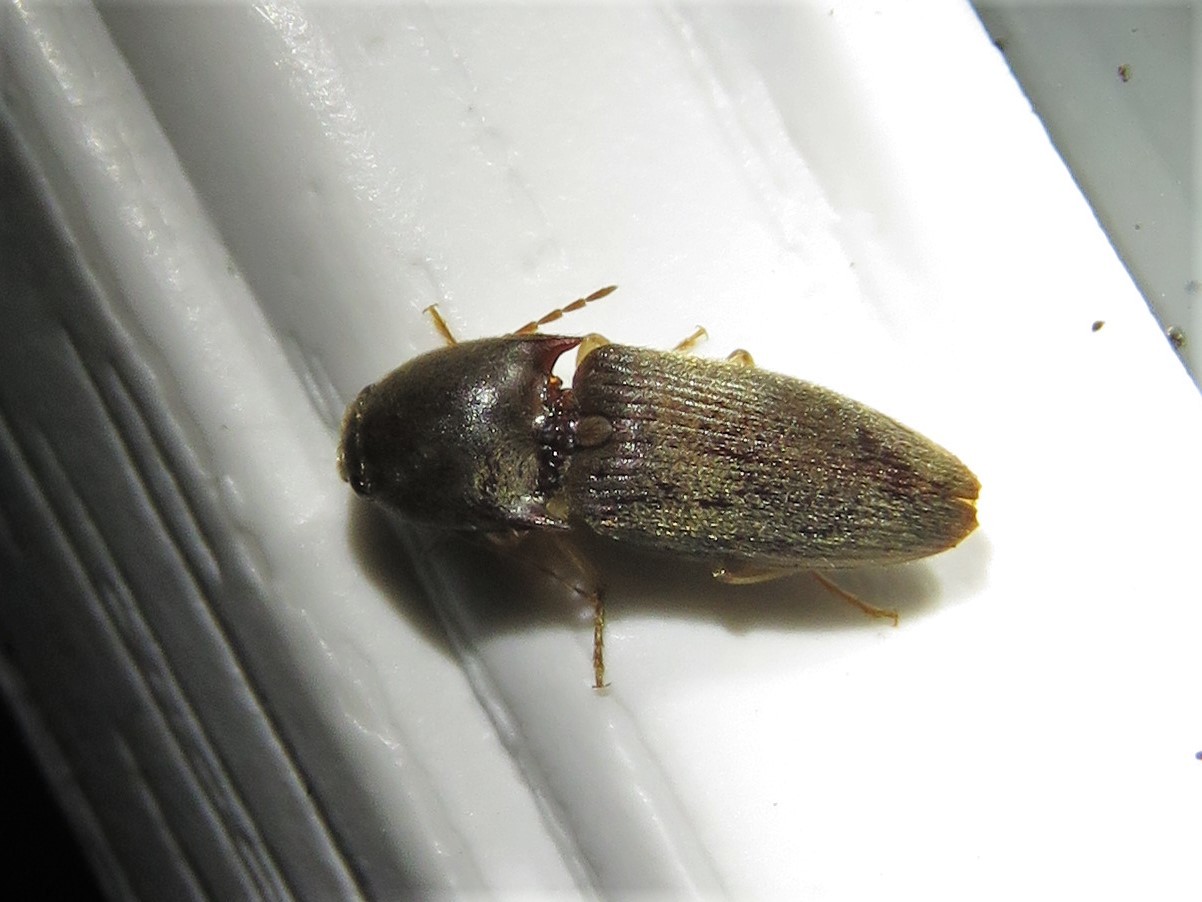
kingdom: Animalia
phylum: Arthropoda
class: Insecta
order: Coleoptera
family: Elateridae
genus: Conoderus
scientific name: Conoderus exsul
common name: Click beetle
